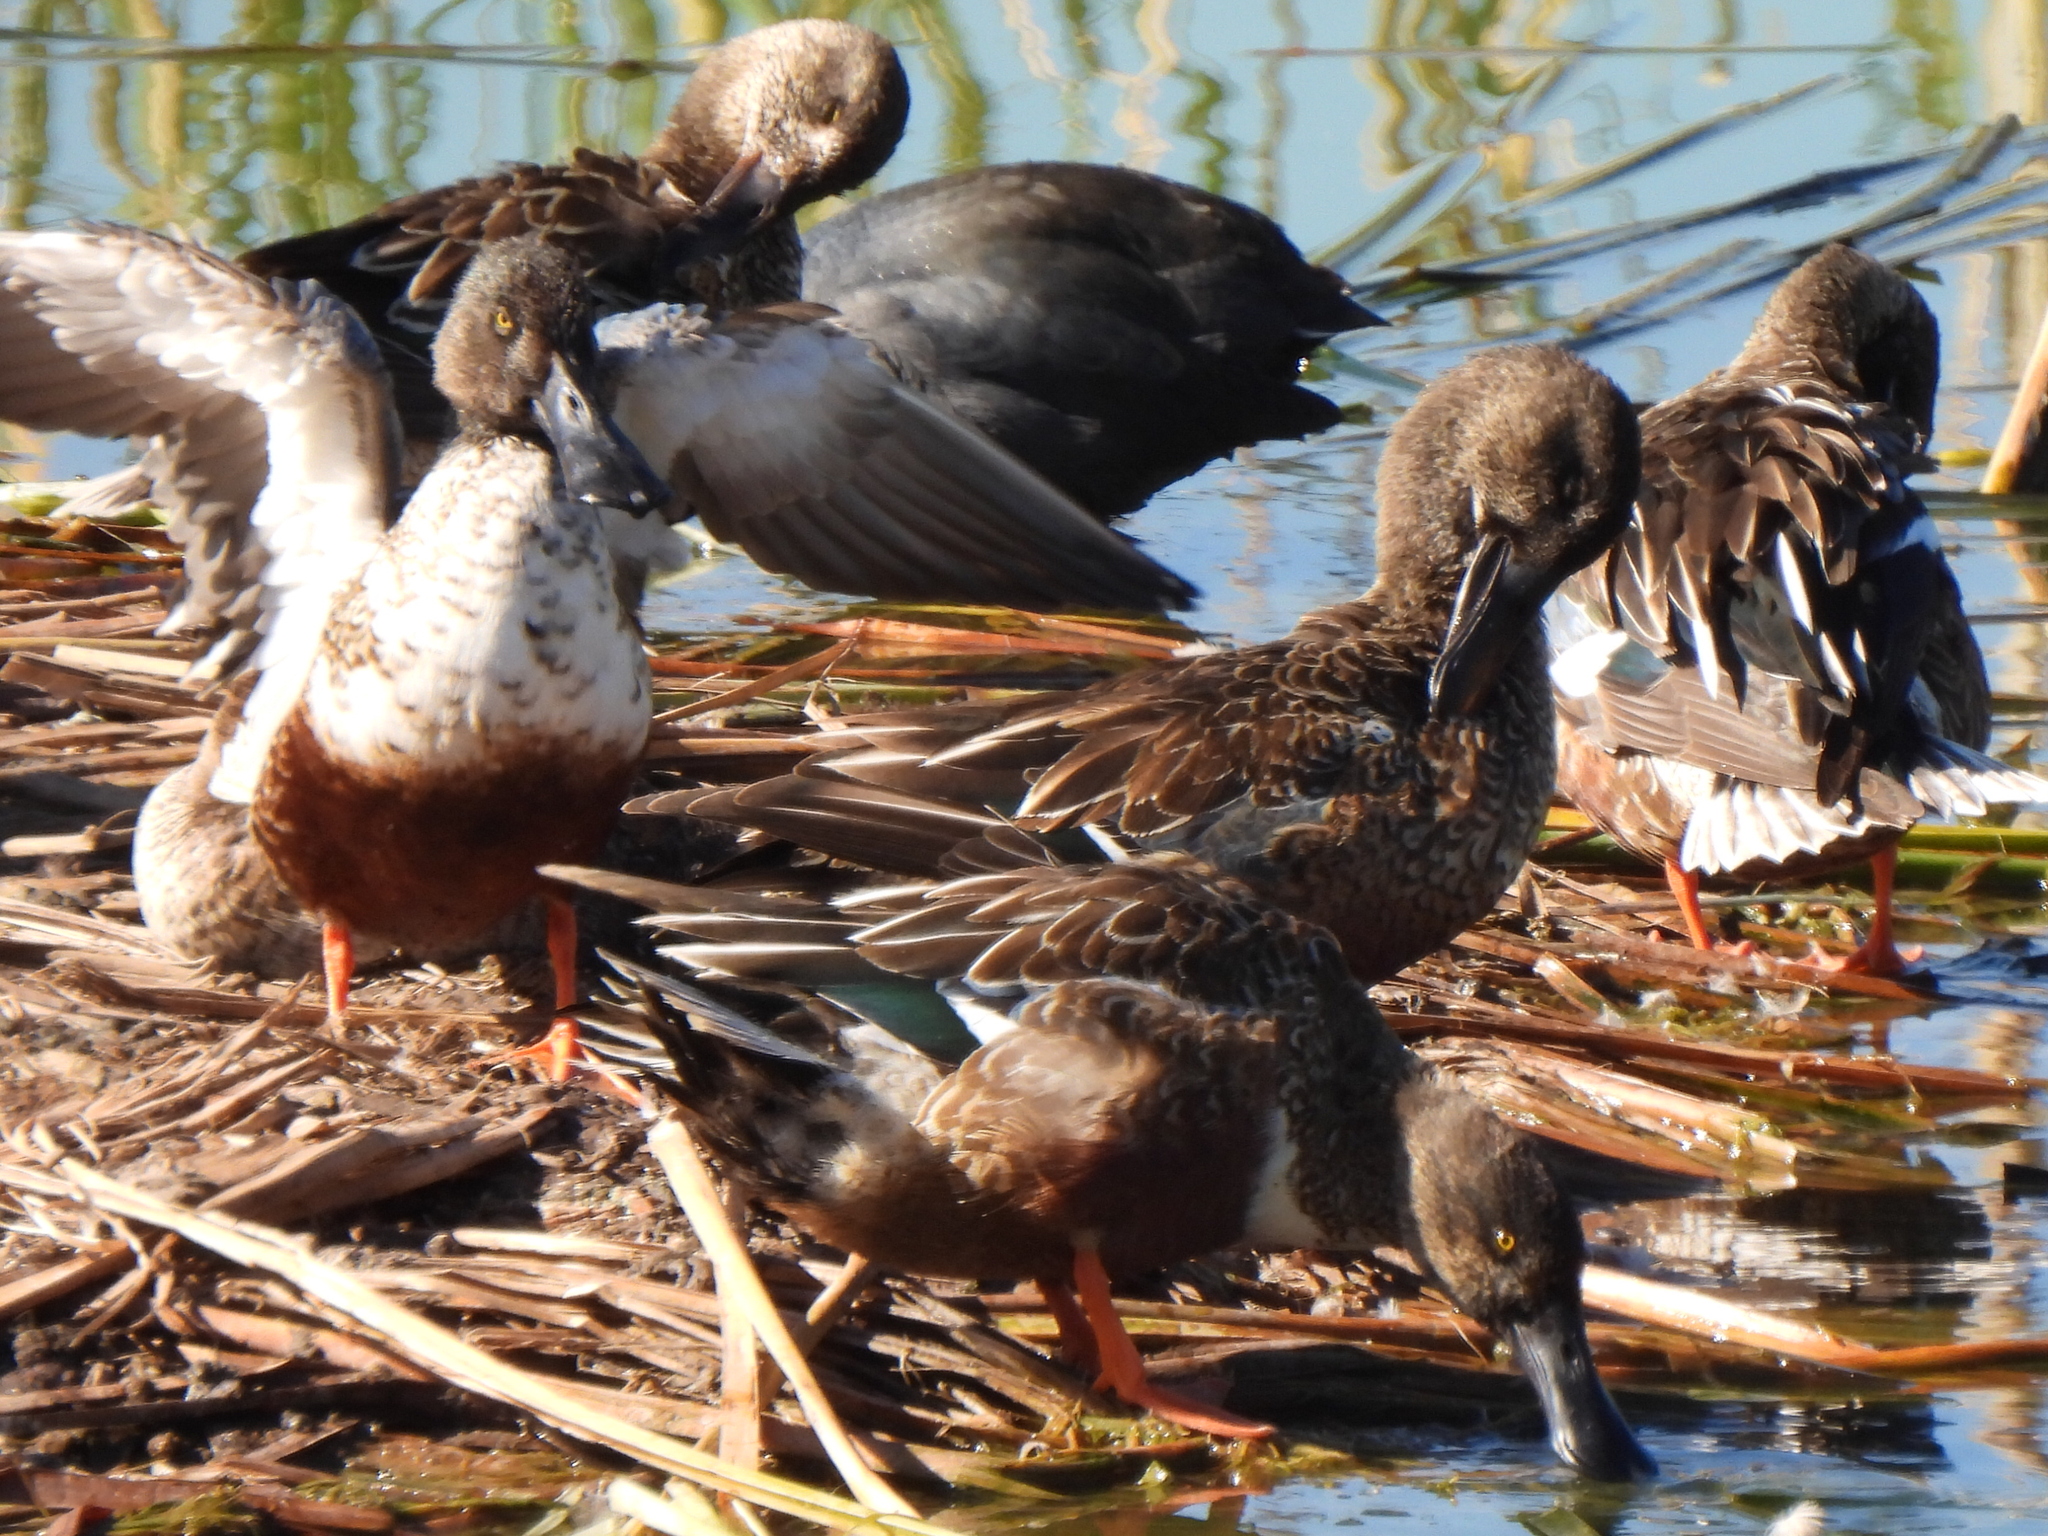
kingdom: Animalia
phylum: Chordata
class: Aves
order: Anseriformes
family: Anatidae
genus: Spatula
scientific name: Spatula clypeata
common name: Northern shoveler
